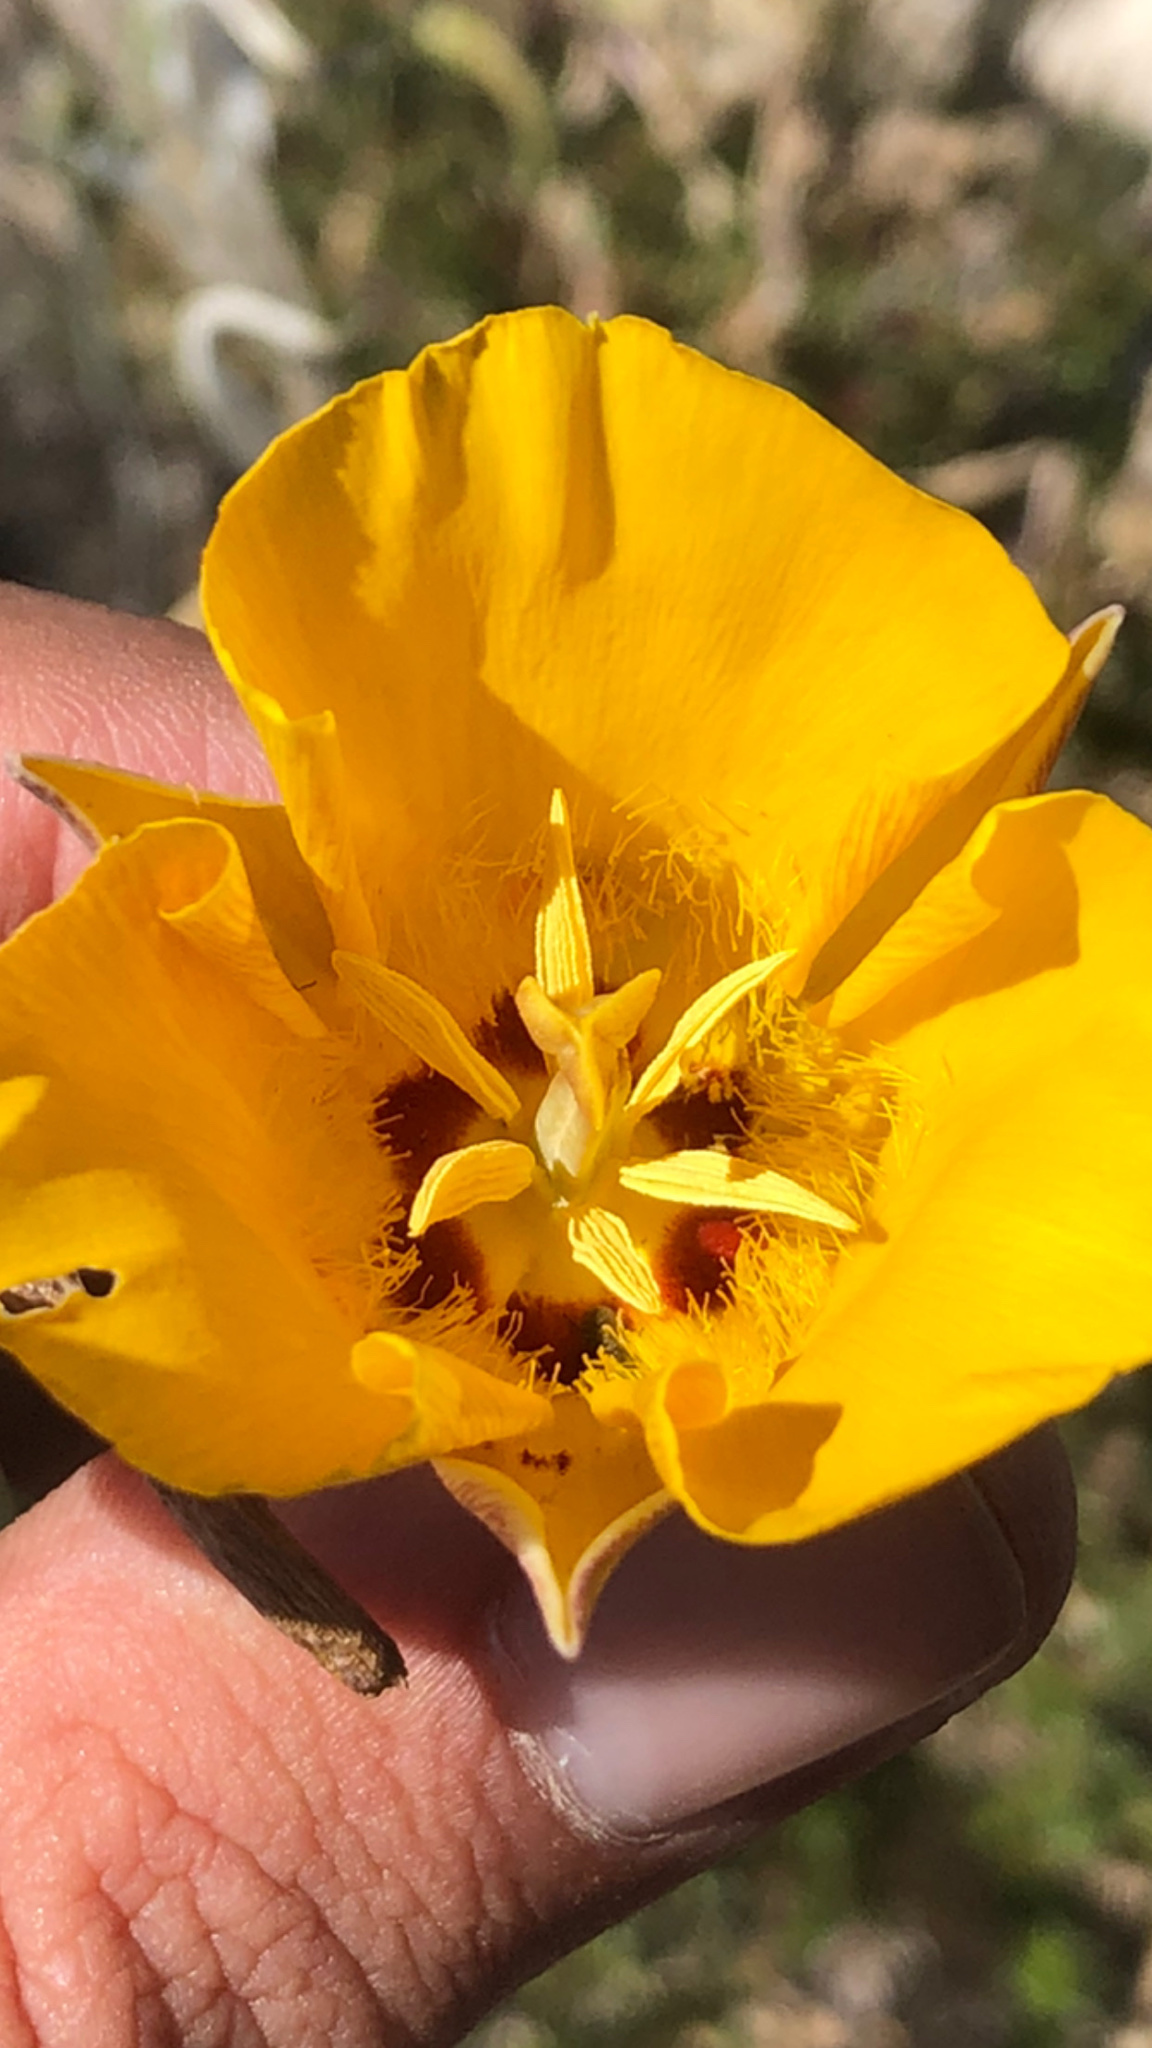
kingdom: Plantae
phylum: Tracheophyta
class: Liliopsida
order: Liliales
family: Liliaceae
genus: Calochortus
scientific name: Calochortus clavatus
